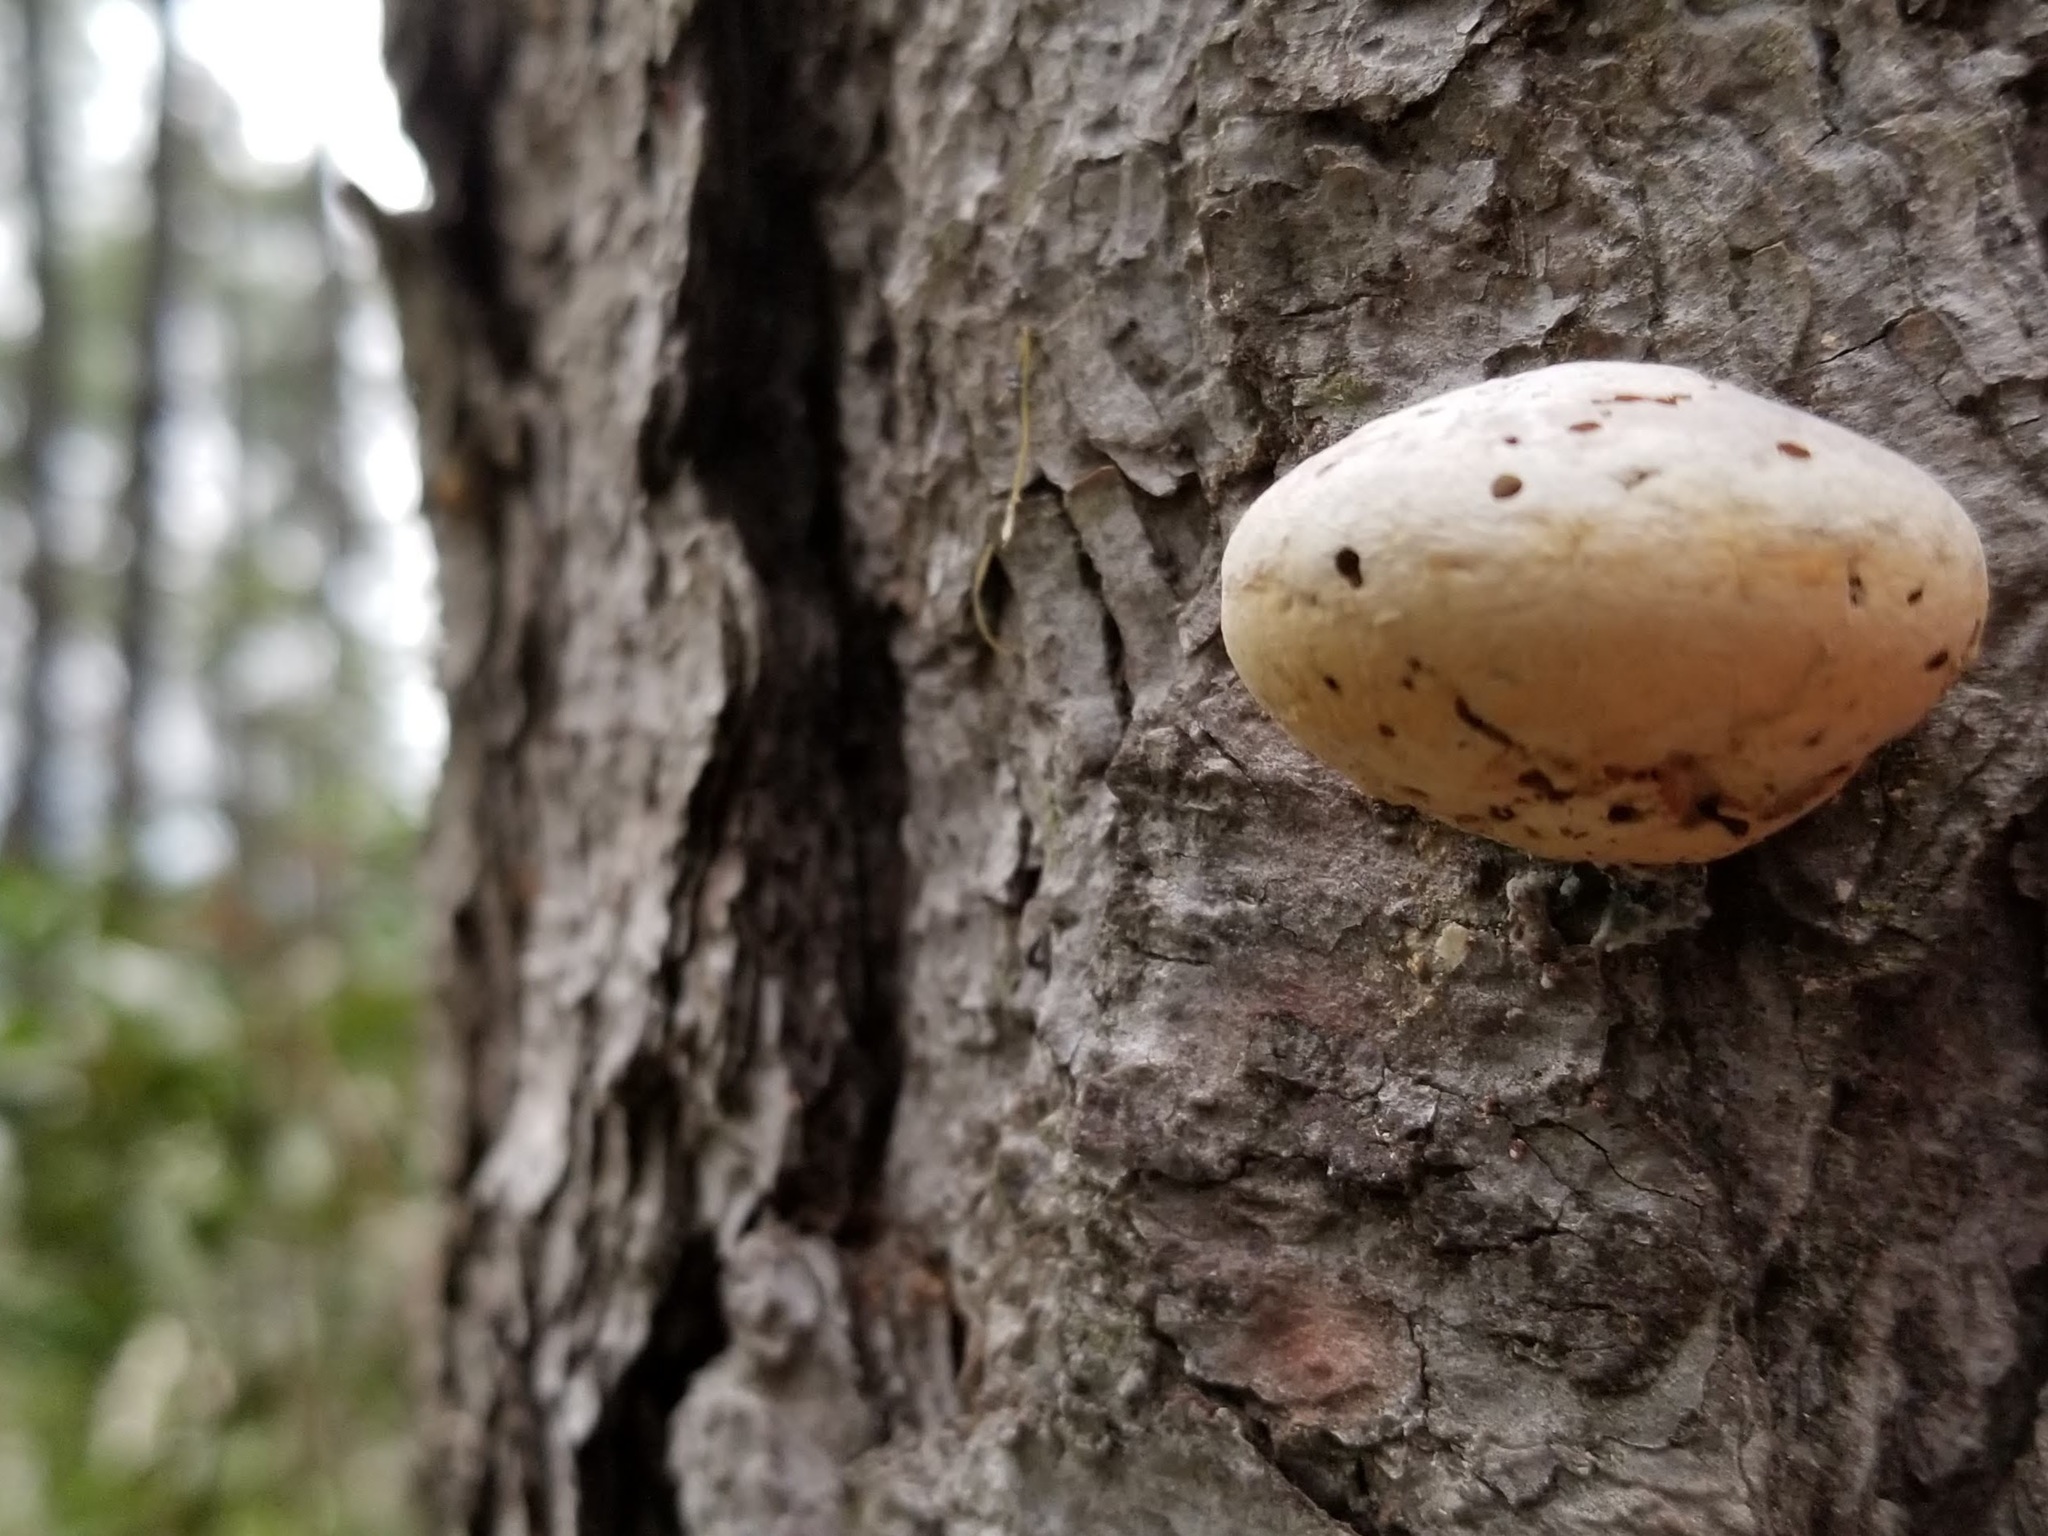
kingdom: Fungi
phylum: Basidiomycota
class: Agaricomycetes
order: Polyporales
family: Polyporaceae
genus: Cryptoporus
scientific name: Cryptoporus volvatus
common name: Veiled polypore
